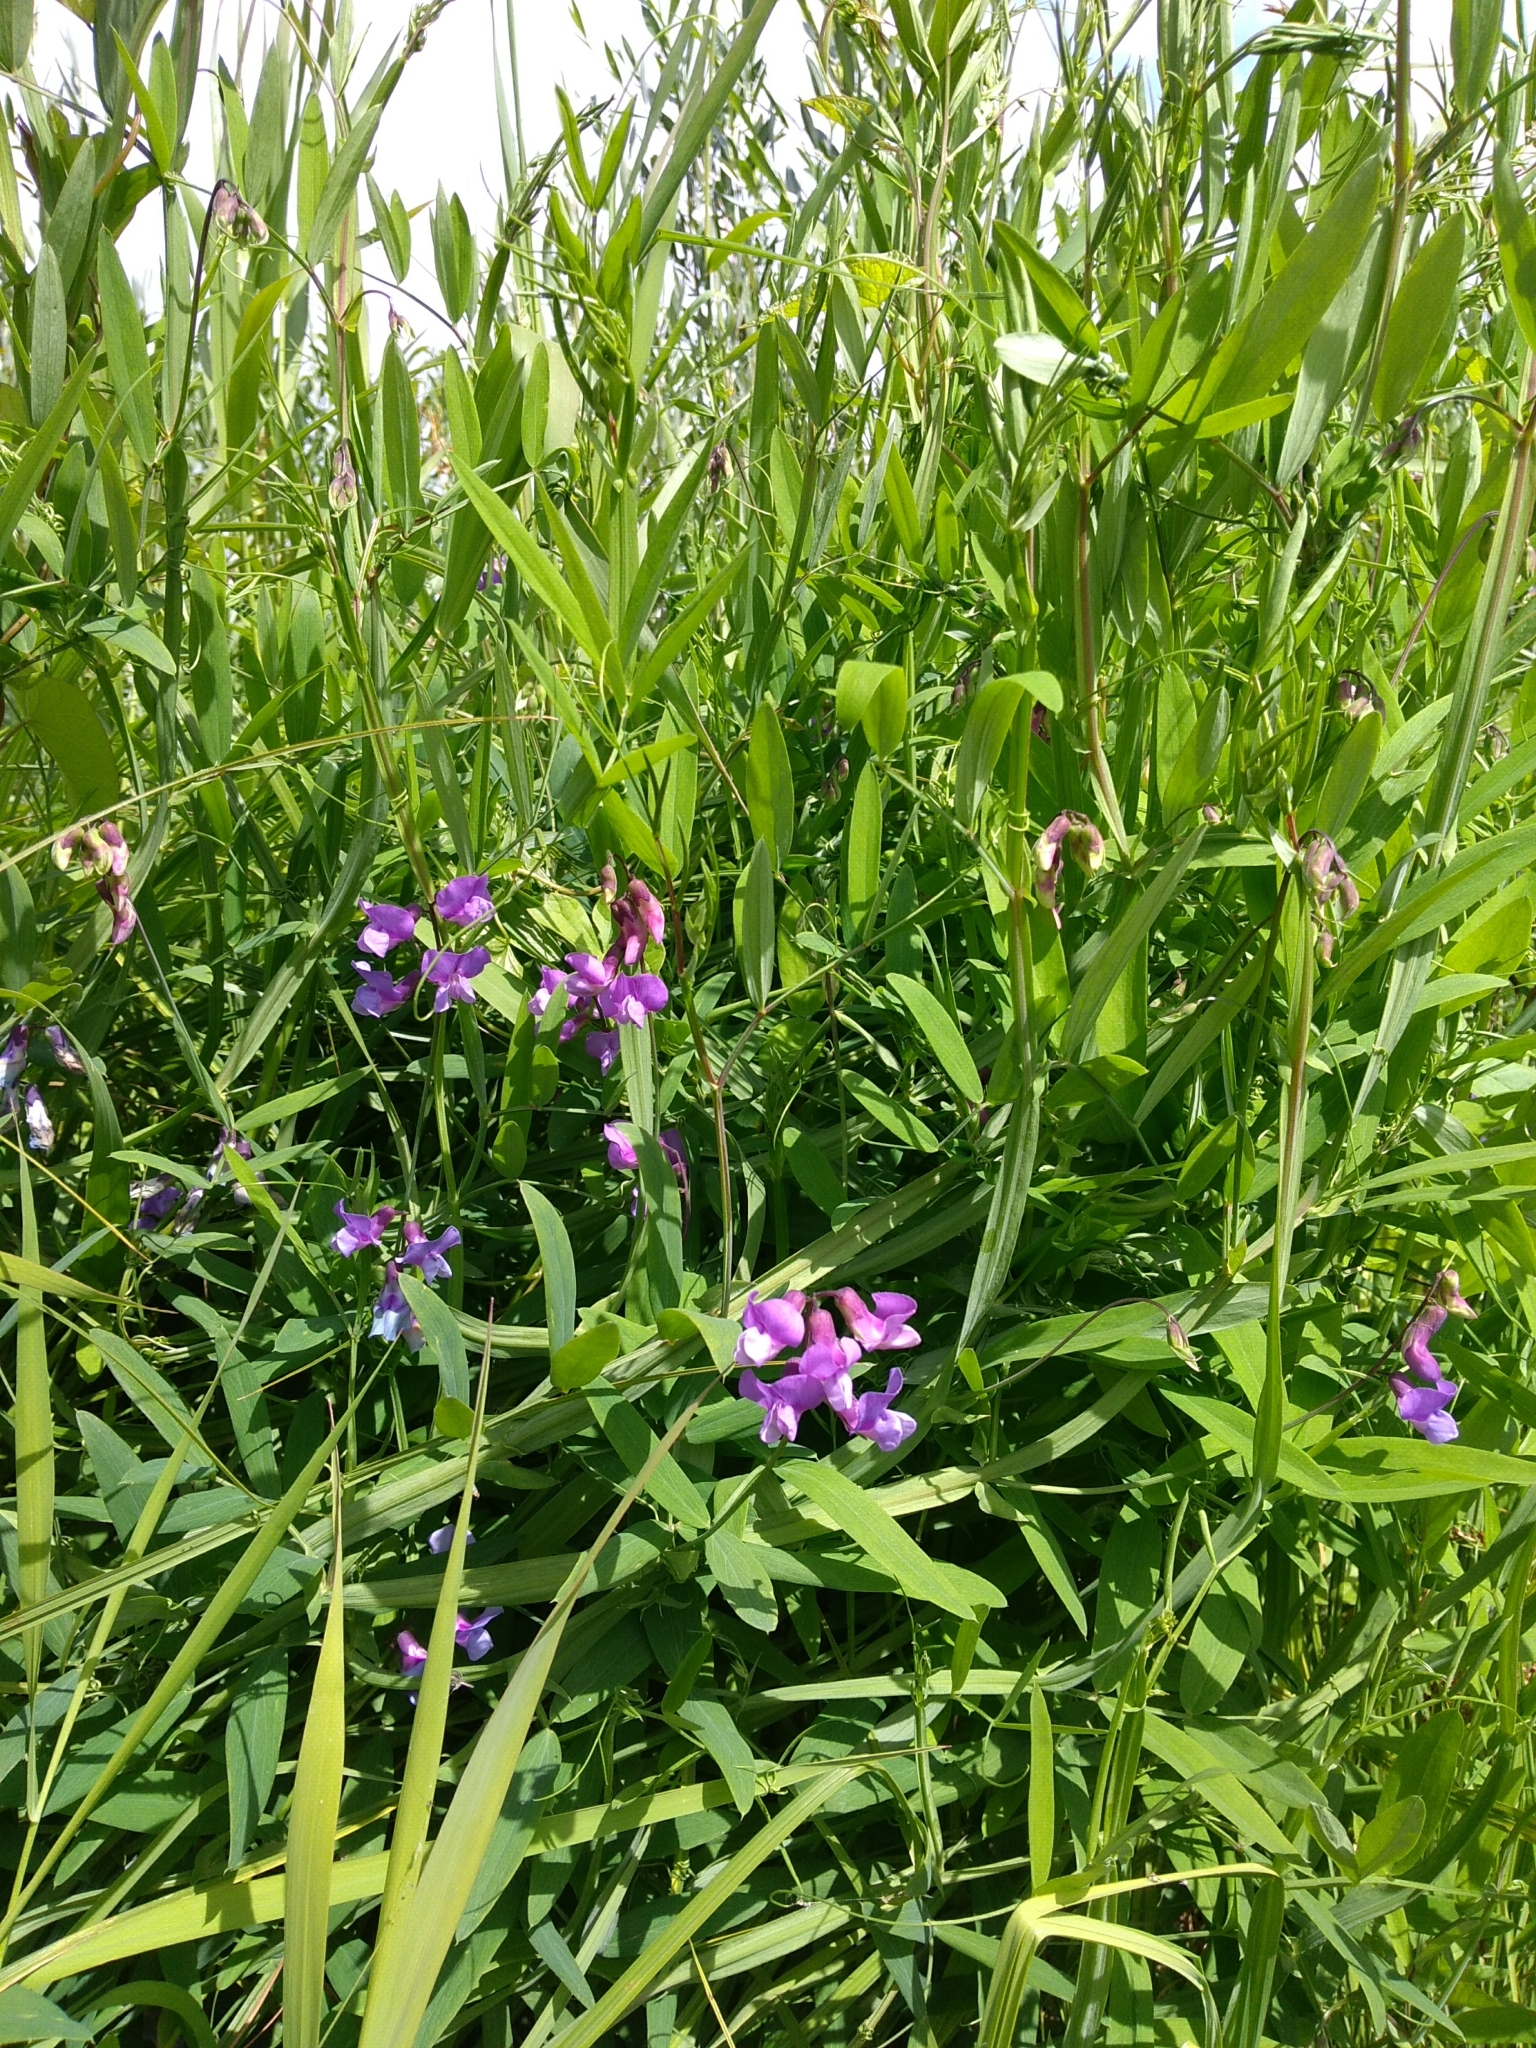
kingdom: Plantae
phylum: Tracheophyta
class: Magnoliopsida
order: Fabales
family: Fabaceae
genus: Lathyrus
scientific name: Lathyrus palustris
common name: Marsh pea
